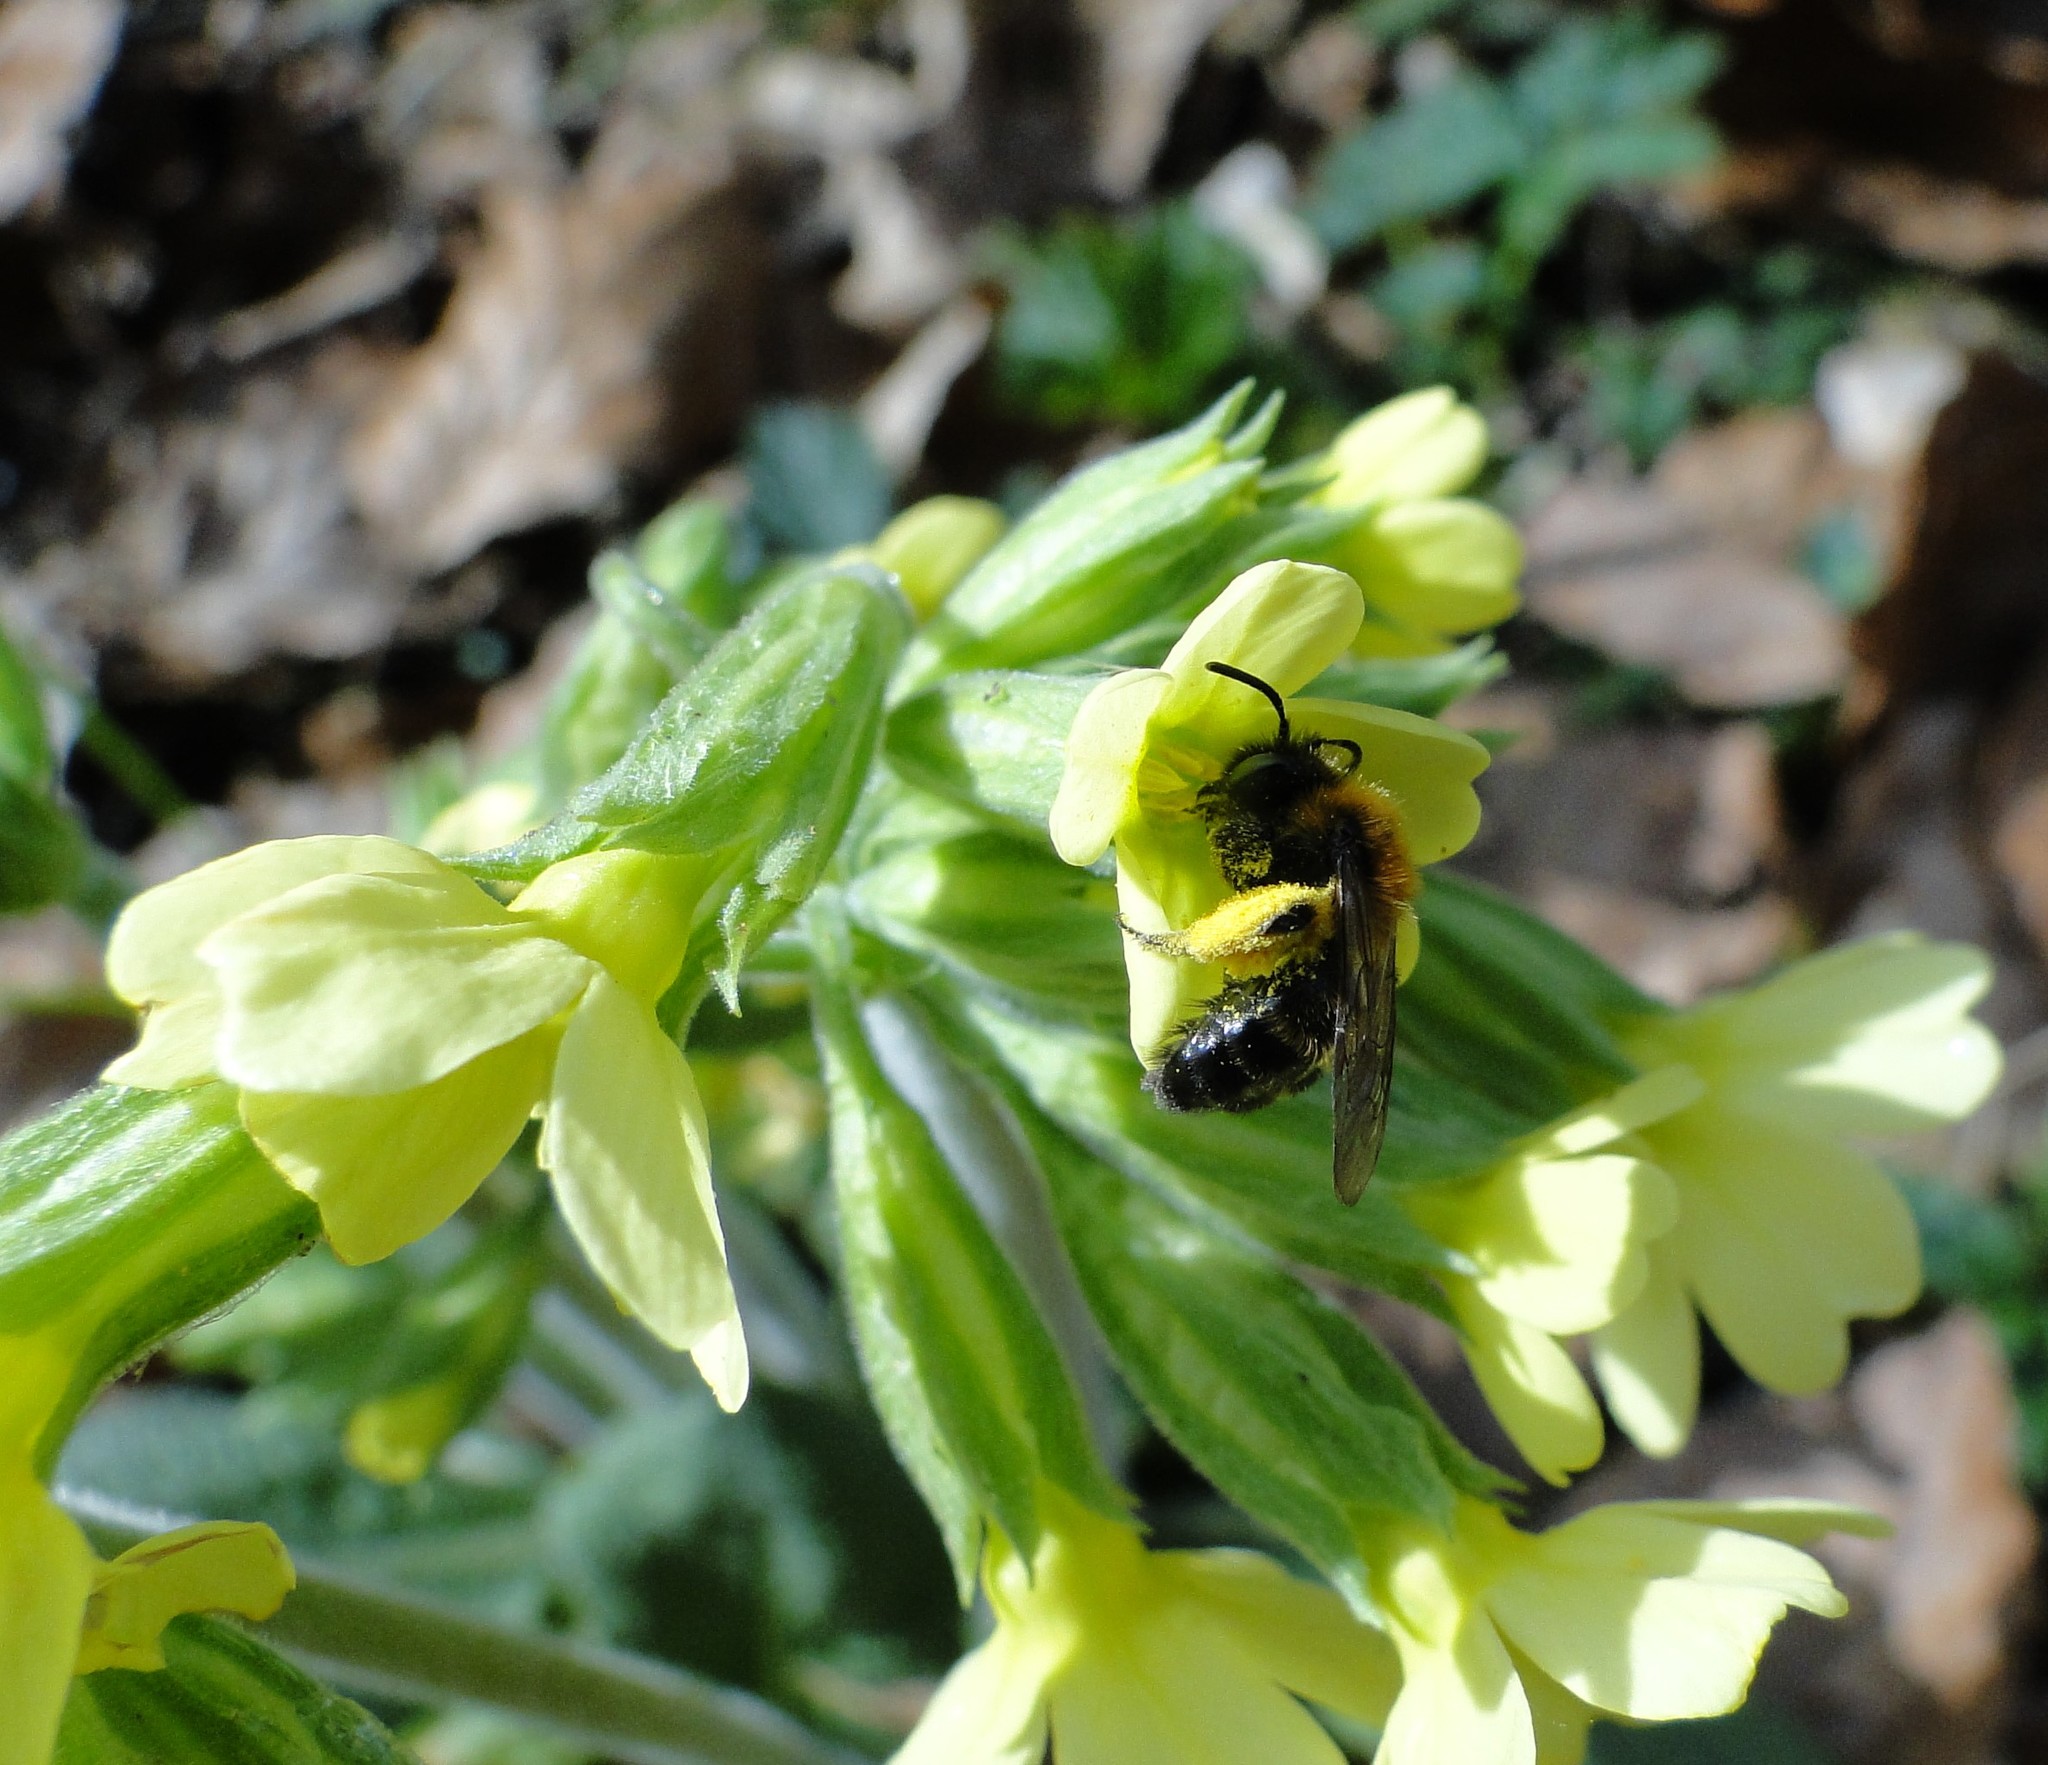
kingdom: Animalia
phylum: Arthropoda
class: Insecta
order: Hymenoptera
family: Andrenidae
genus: Andrena
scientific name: Andrena bicolor
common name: Gwynne's mining bee
